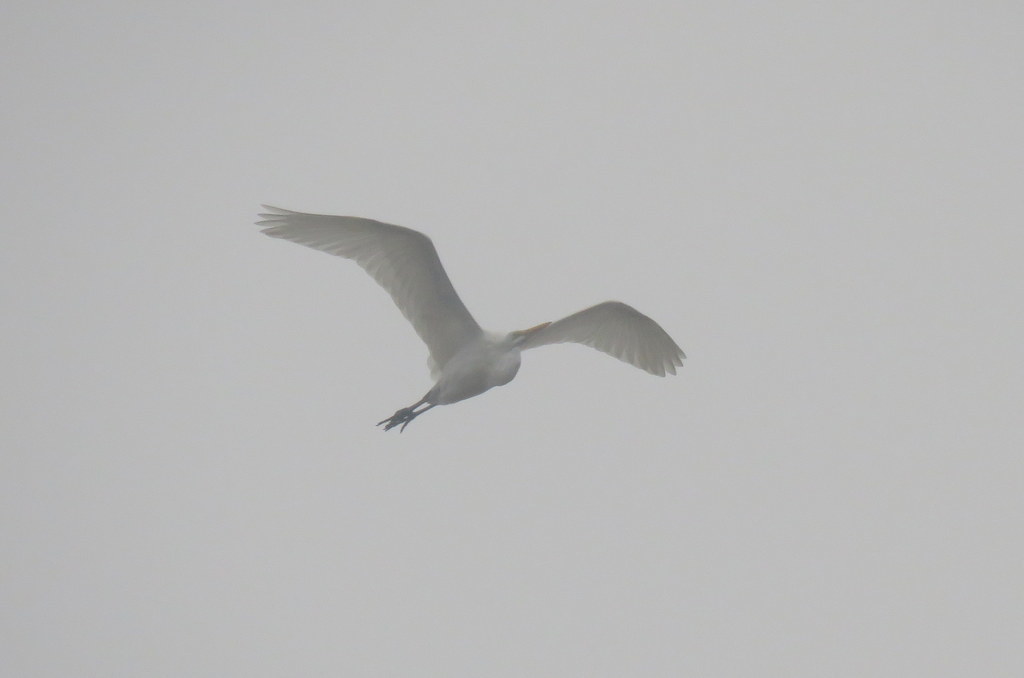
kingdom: Animalia
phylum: Chordata
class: Aves
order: Pelecaniformes
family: Ardeidae
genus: Ardea
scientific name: Ardea alba
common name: Great egret
